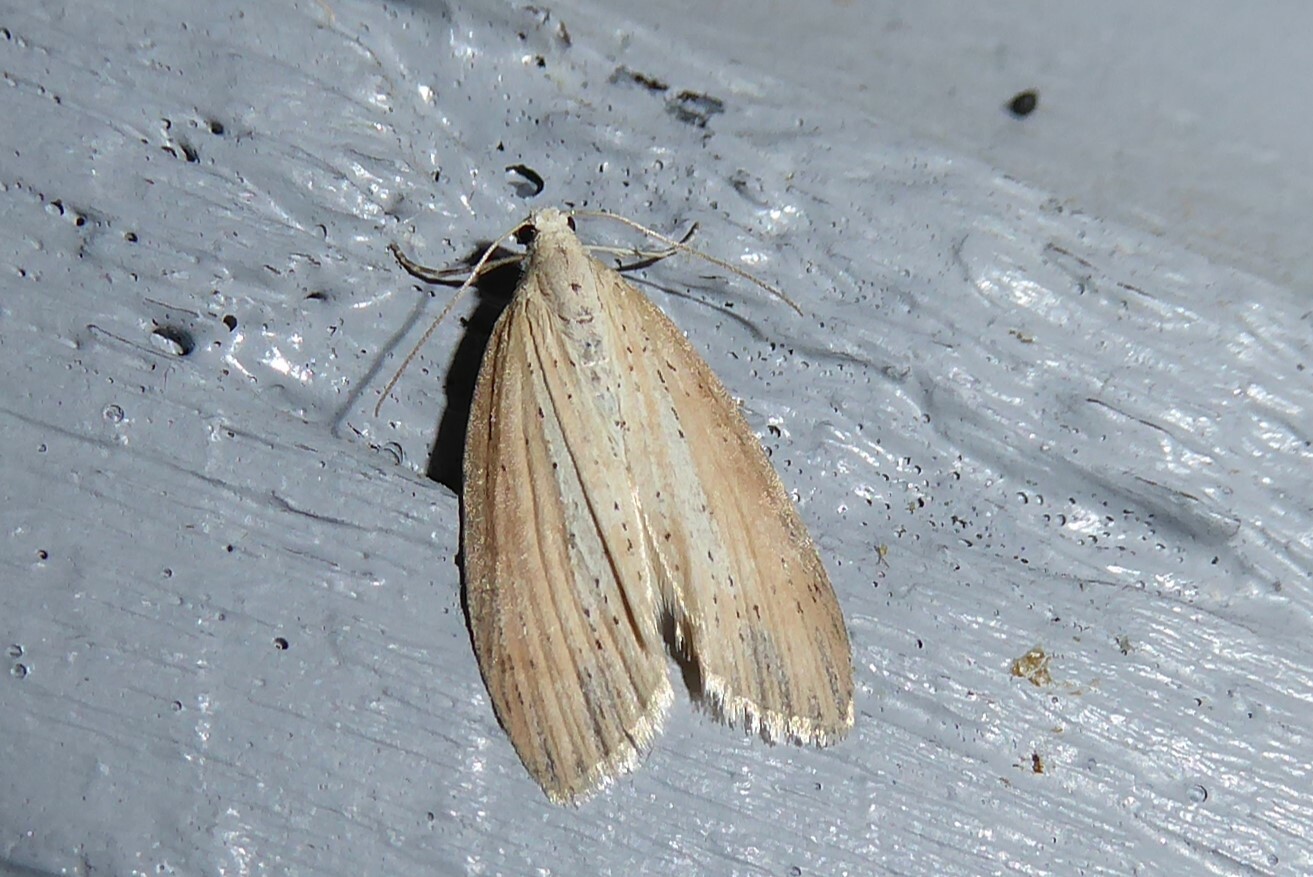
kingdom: Animalia
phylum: Arthropoda
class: Insecta
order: Lepidoptera
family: Geometridae
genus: Microdes
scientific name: Microdes epicryptis
